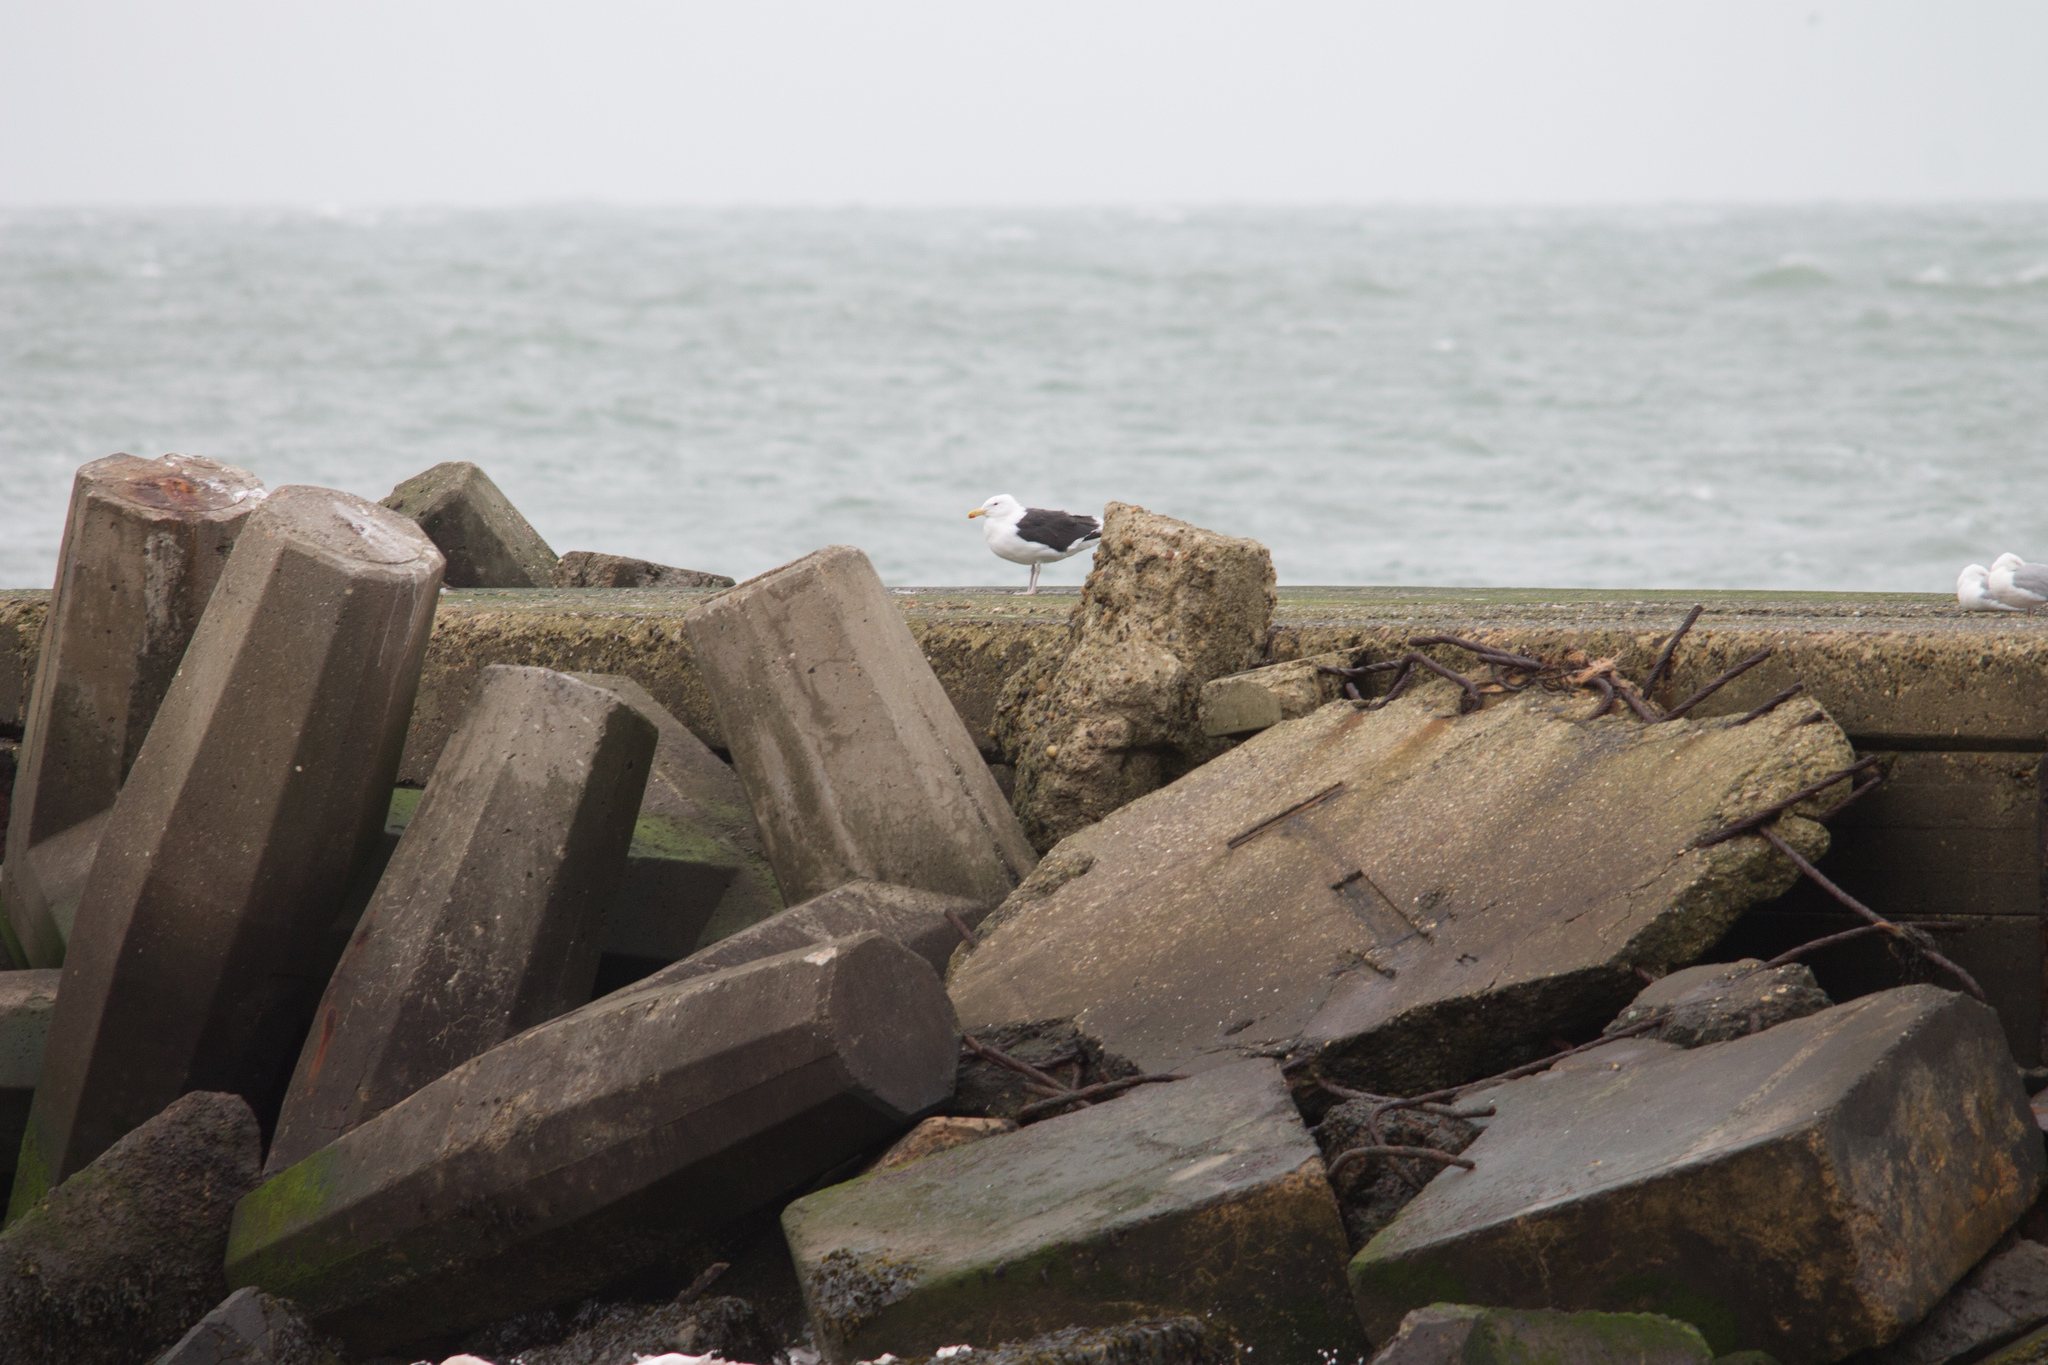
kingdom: Animalia
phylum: Chordata
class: Aves
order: Charadriiformes
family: Laridae
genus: Larus
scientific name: Larus marinus
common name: Great black-backed gull
